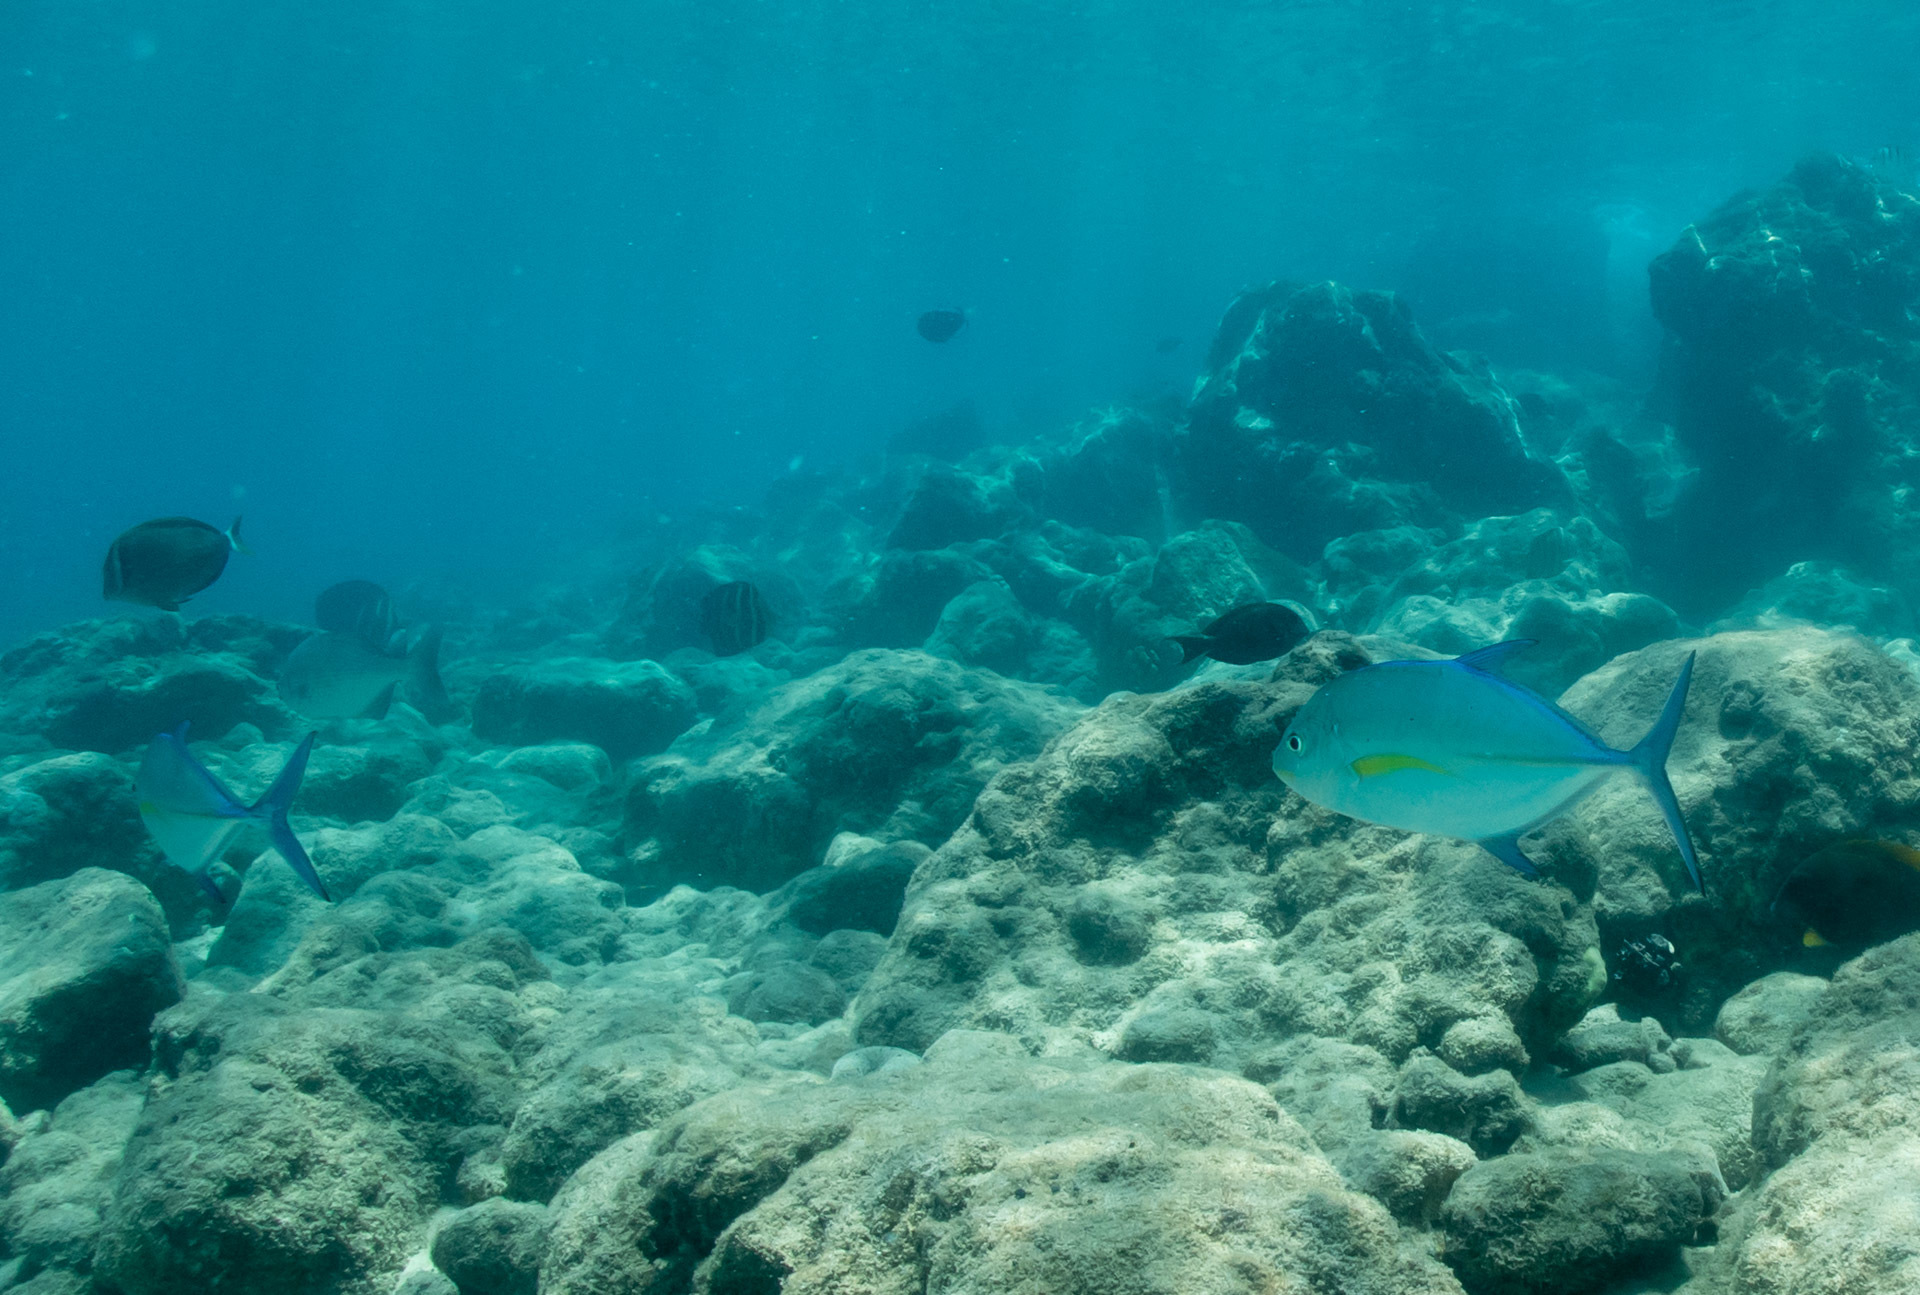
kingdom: Animalia
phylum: Chordata
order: Perciformes
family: Carangidae
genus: Caranx
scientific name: Caranx melampygus
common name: Bluefin trevally
